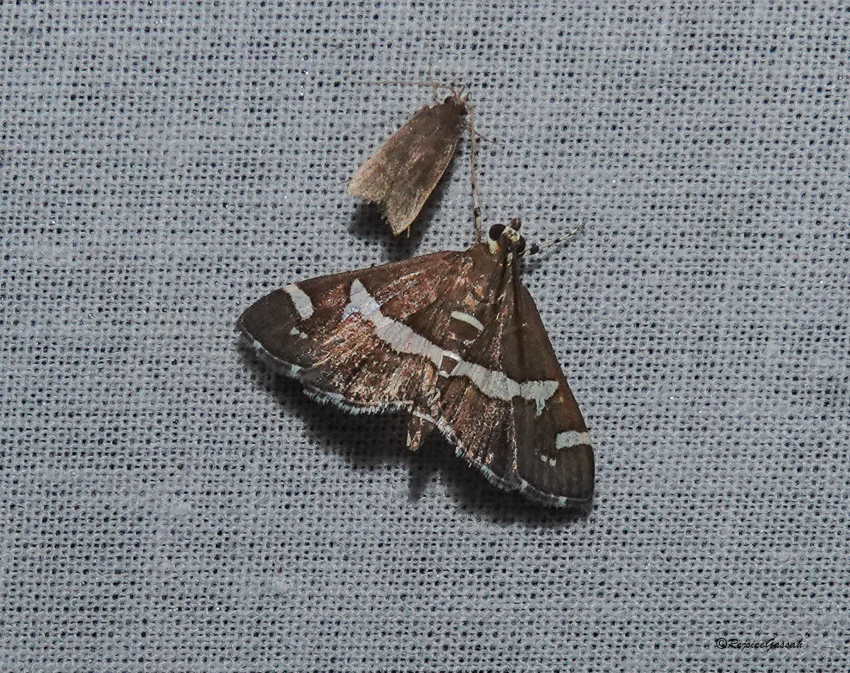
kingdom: Animalia
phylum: Arthropoda
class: Insecta
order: Lepidoptera
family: Crambidae
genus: Spoladea
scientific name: Spoladea recurvalis
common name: Beet webworm moth
